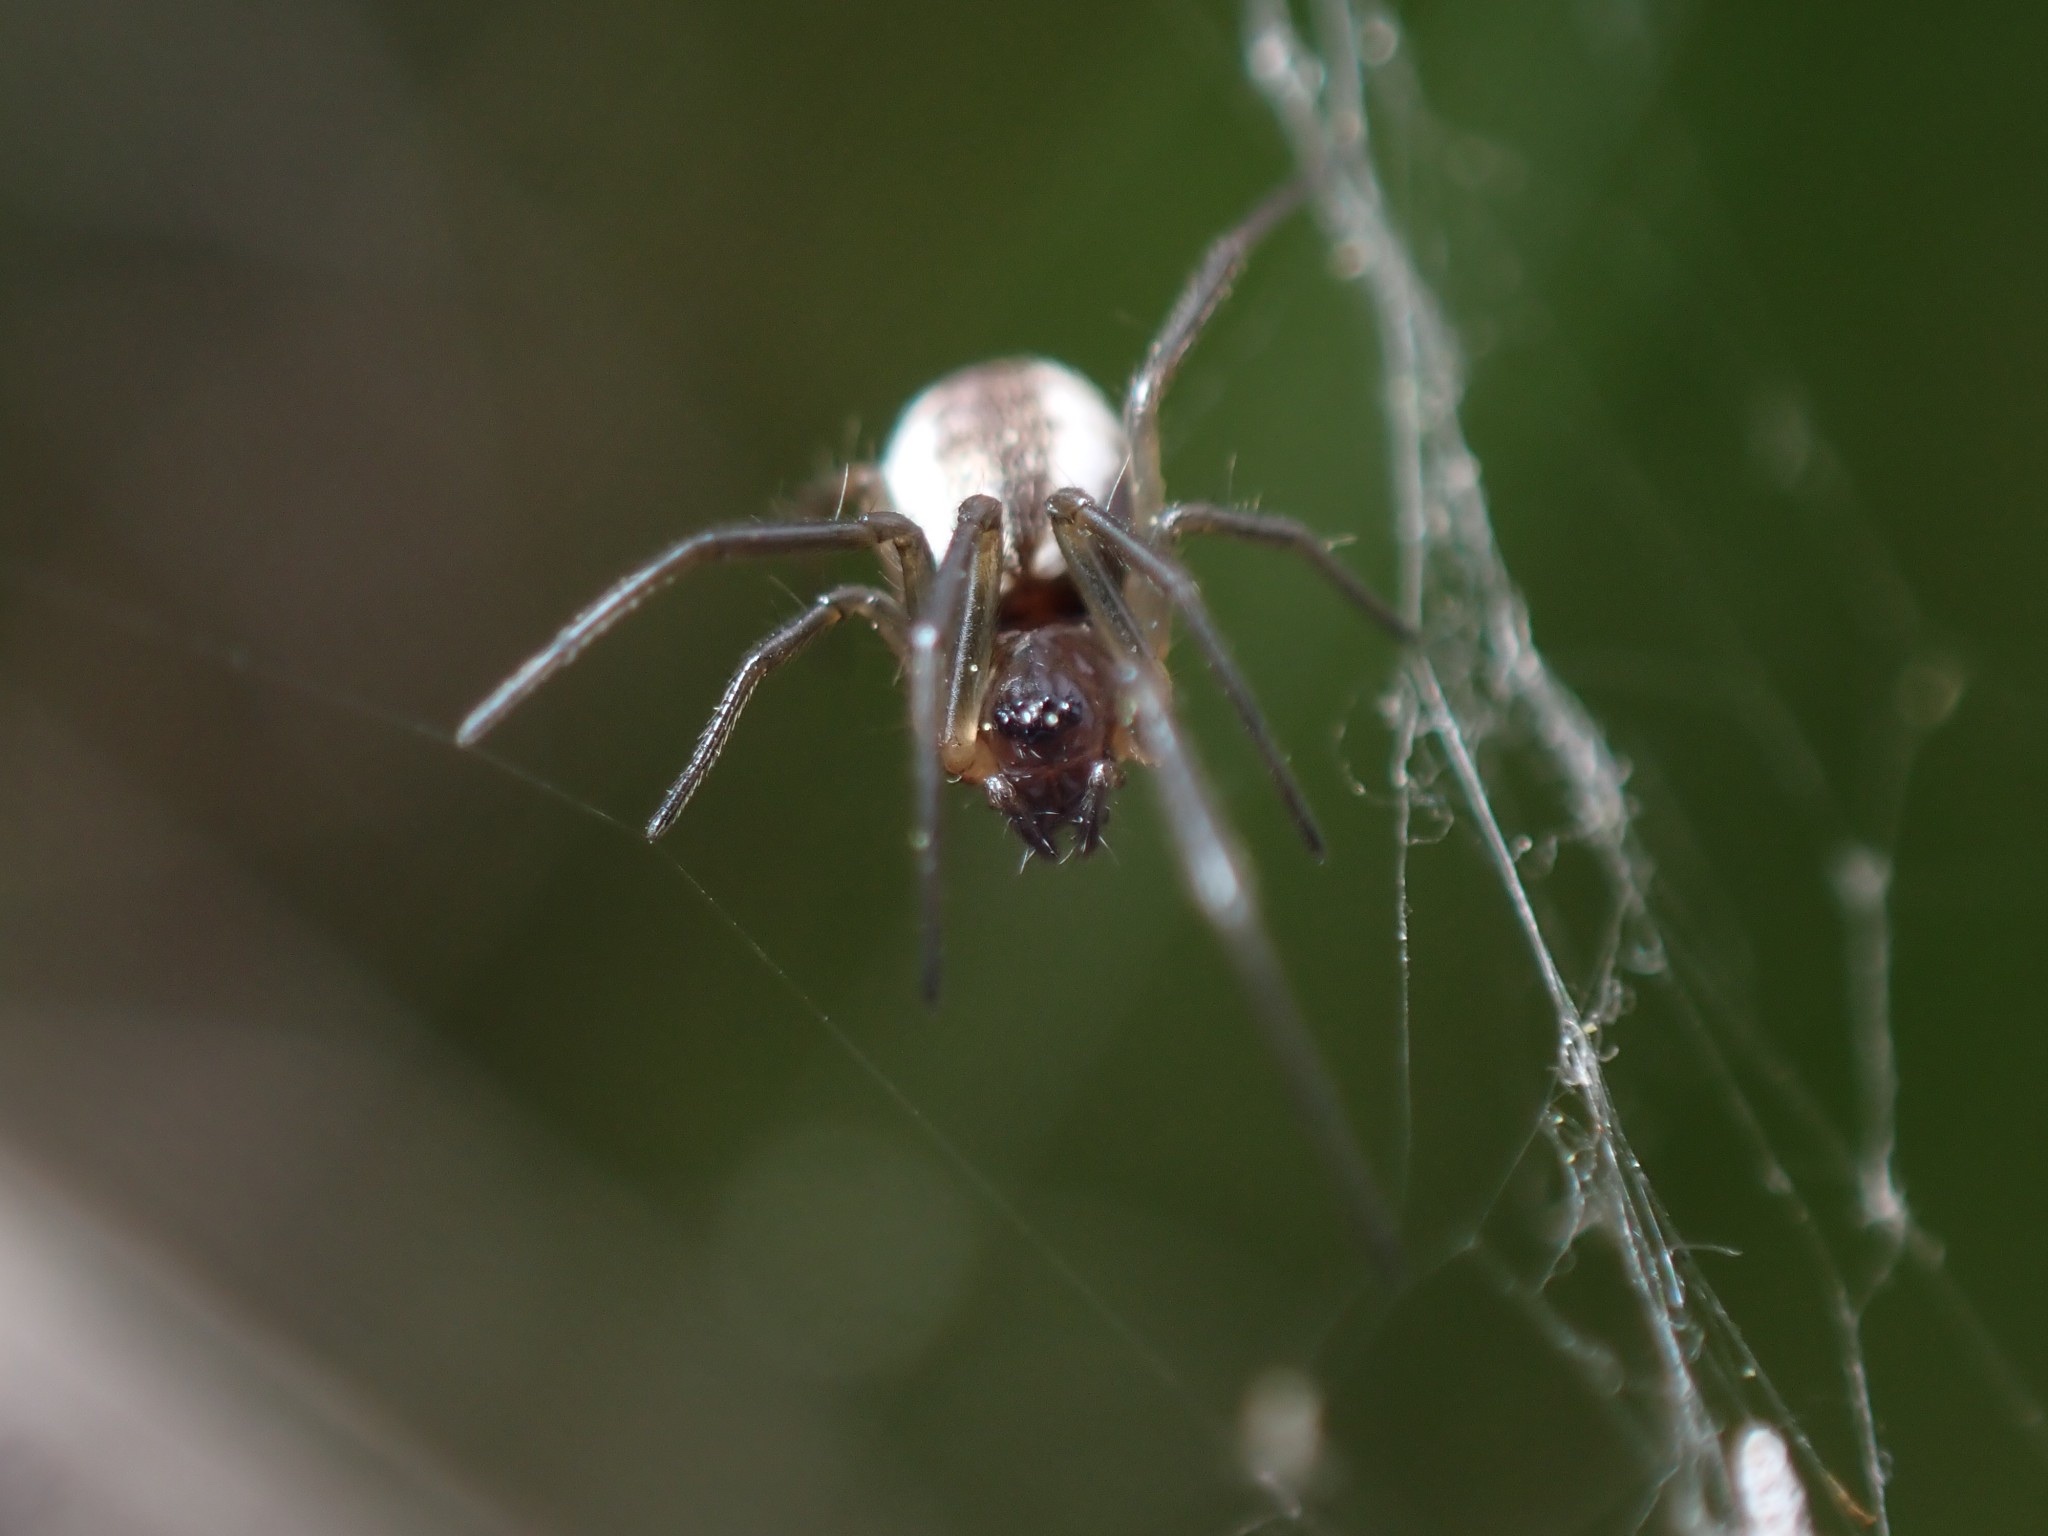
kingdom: Animalia
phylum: Arthropoda
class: Arachnida
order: Araneae
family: Linyphiidae
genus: Frontinella
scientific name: Frontinella pyramitela
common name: Bowl-and-doily spider
